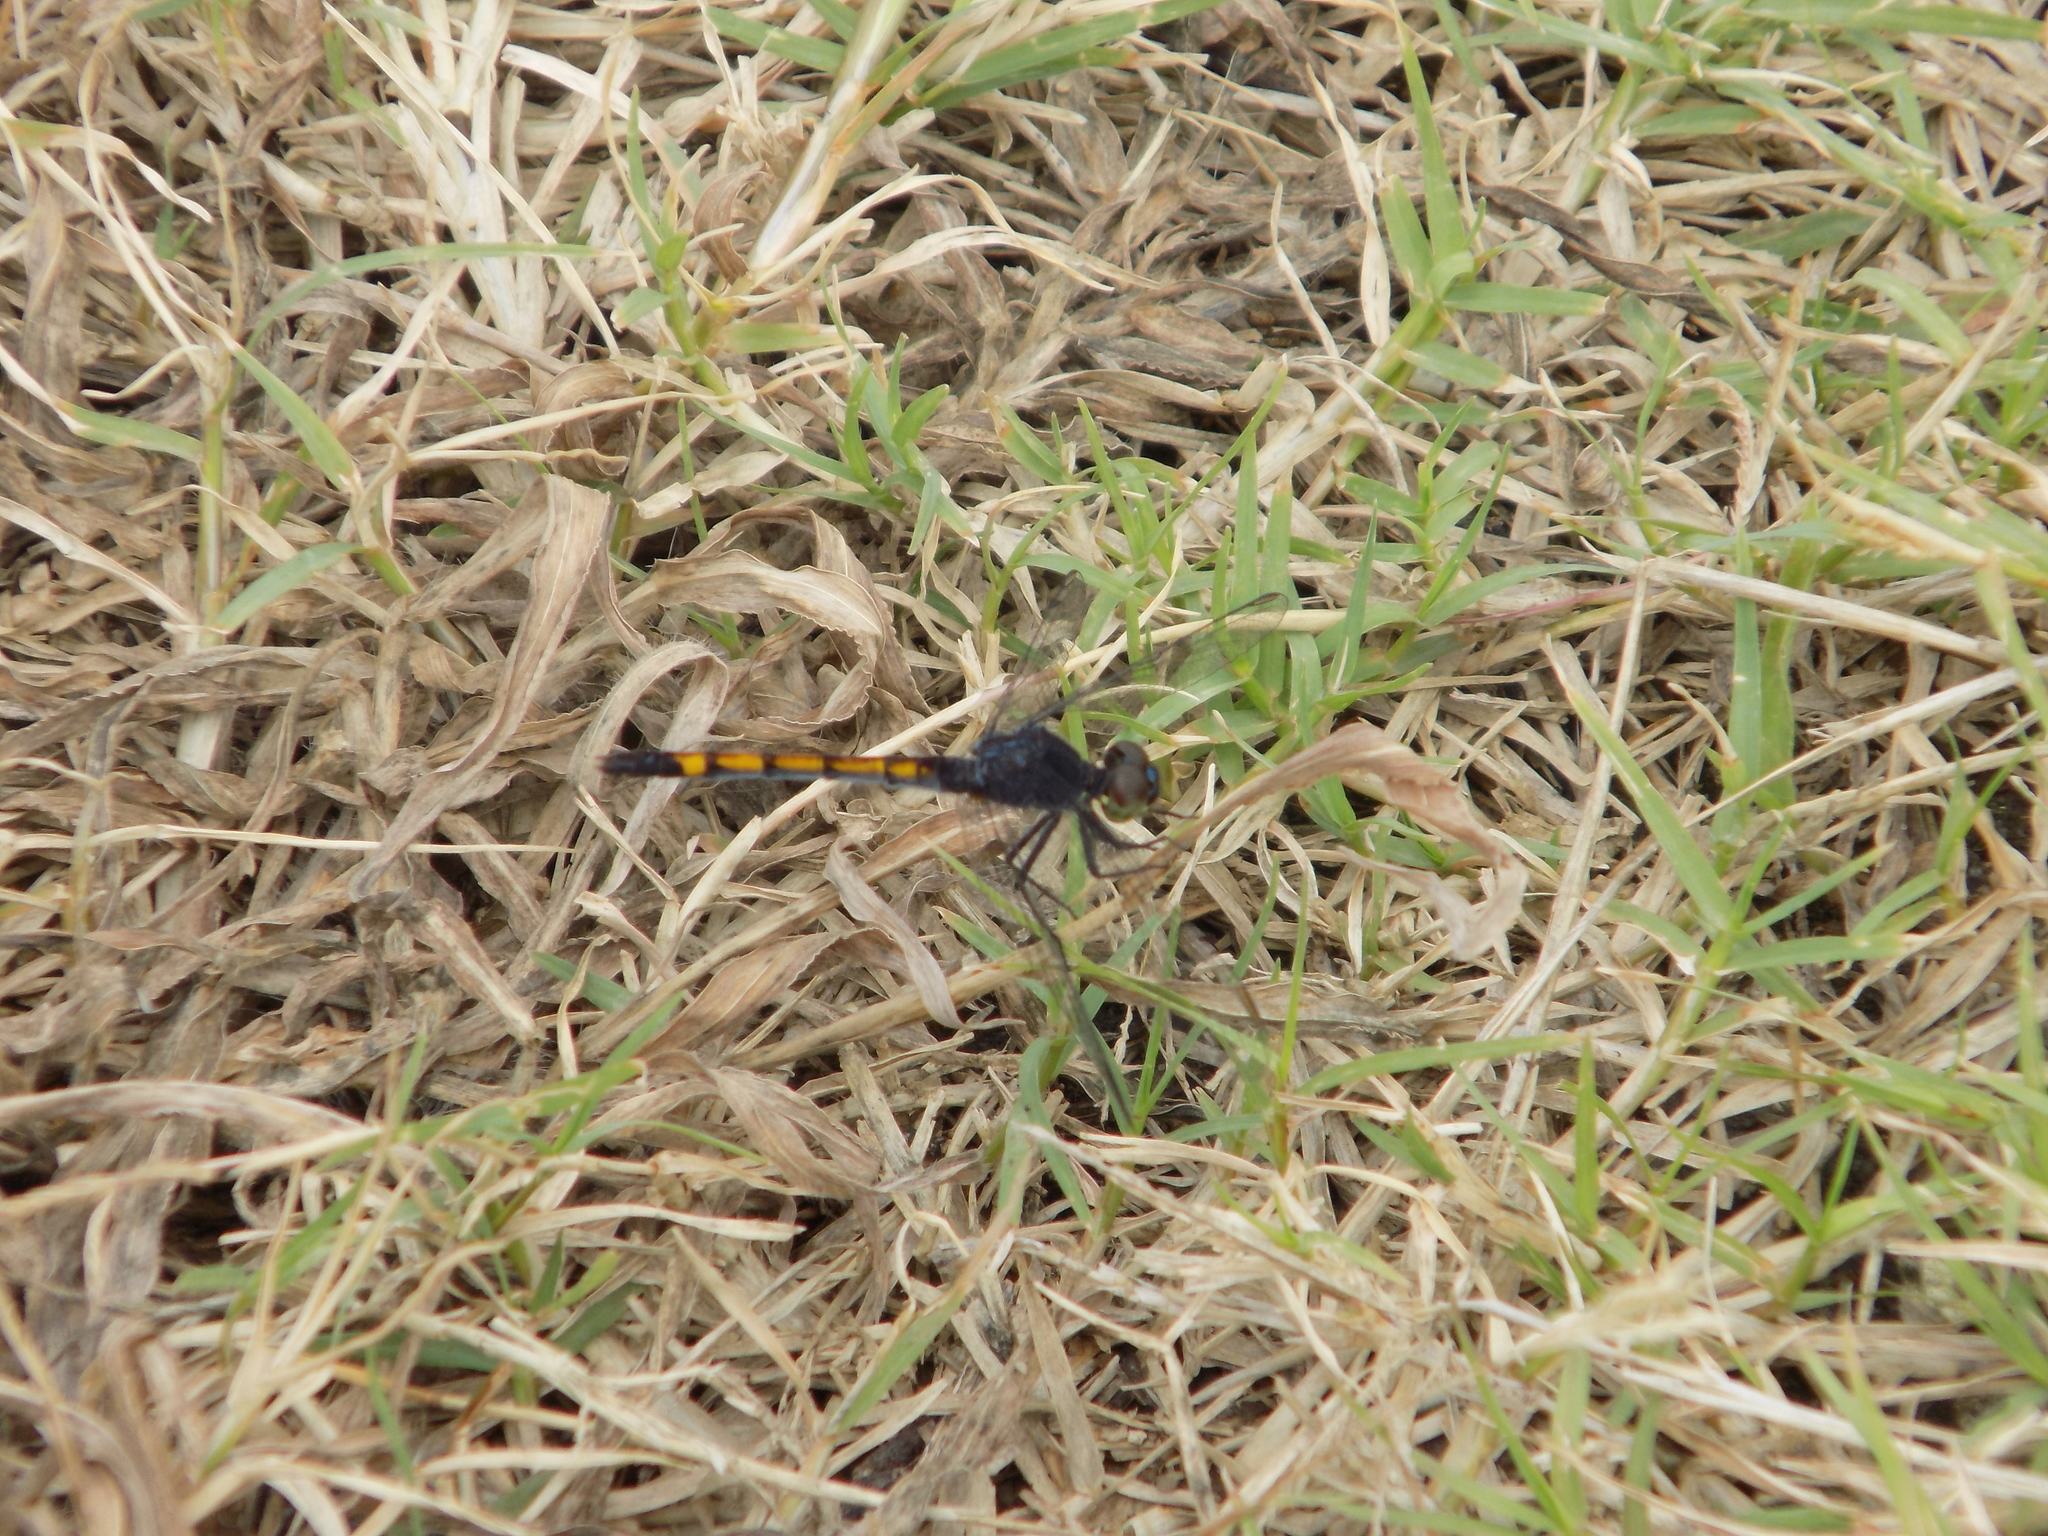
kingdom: Animalia
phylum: Arthropoda
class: Insecta
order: Odonata
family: Libellulidae
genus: Erythrodiplax
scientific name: Erythrodiplax berenice
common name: Seaside dragonlet
